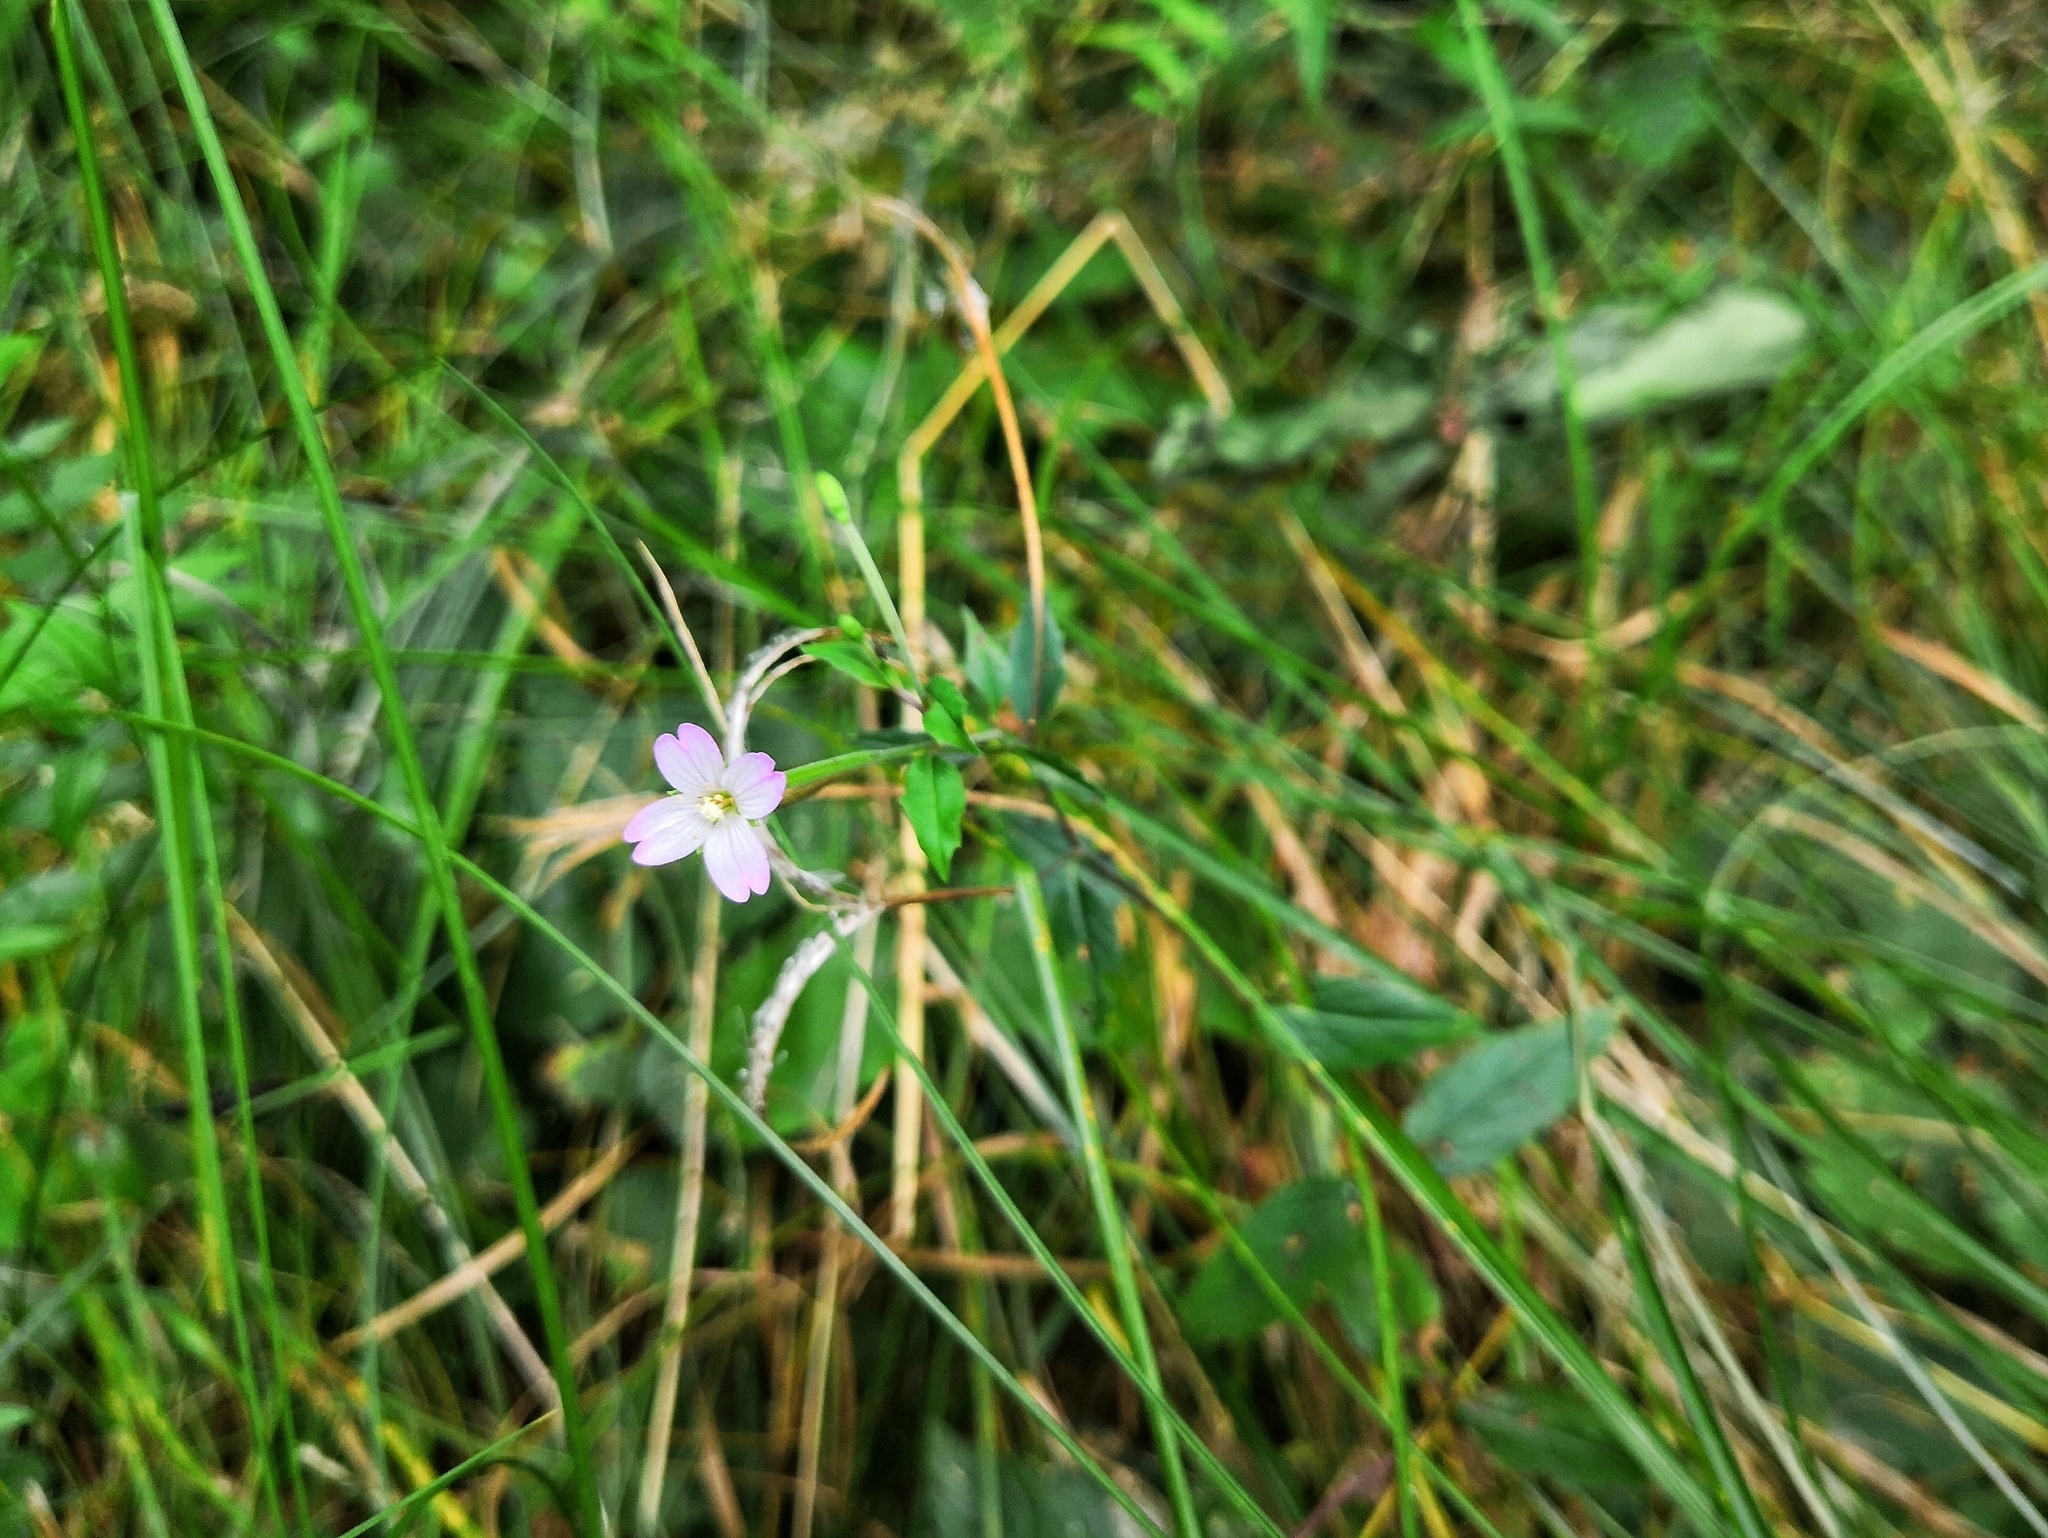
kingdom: Plantae
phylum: Tracheophyta
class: Magnoliopsida
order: Myrtales
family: Onagraceae
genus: Epilobium
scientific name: Epilobium montanum
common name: Broad-leaved willowherb
